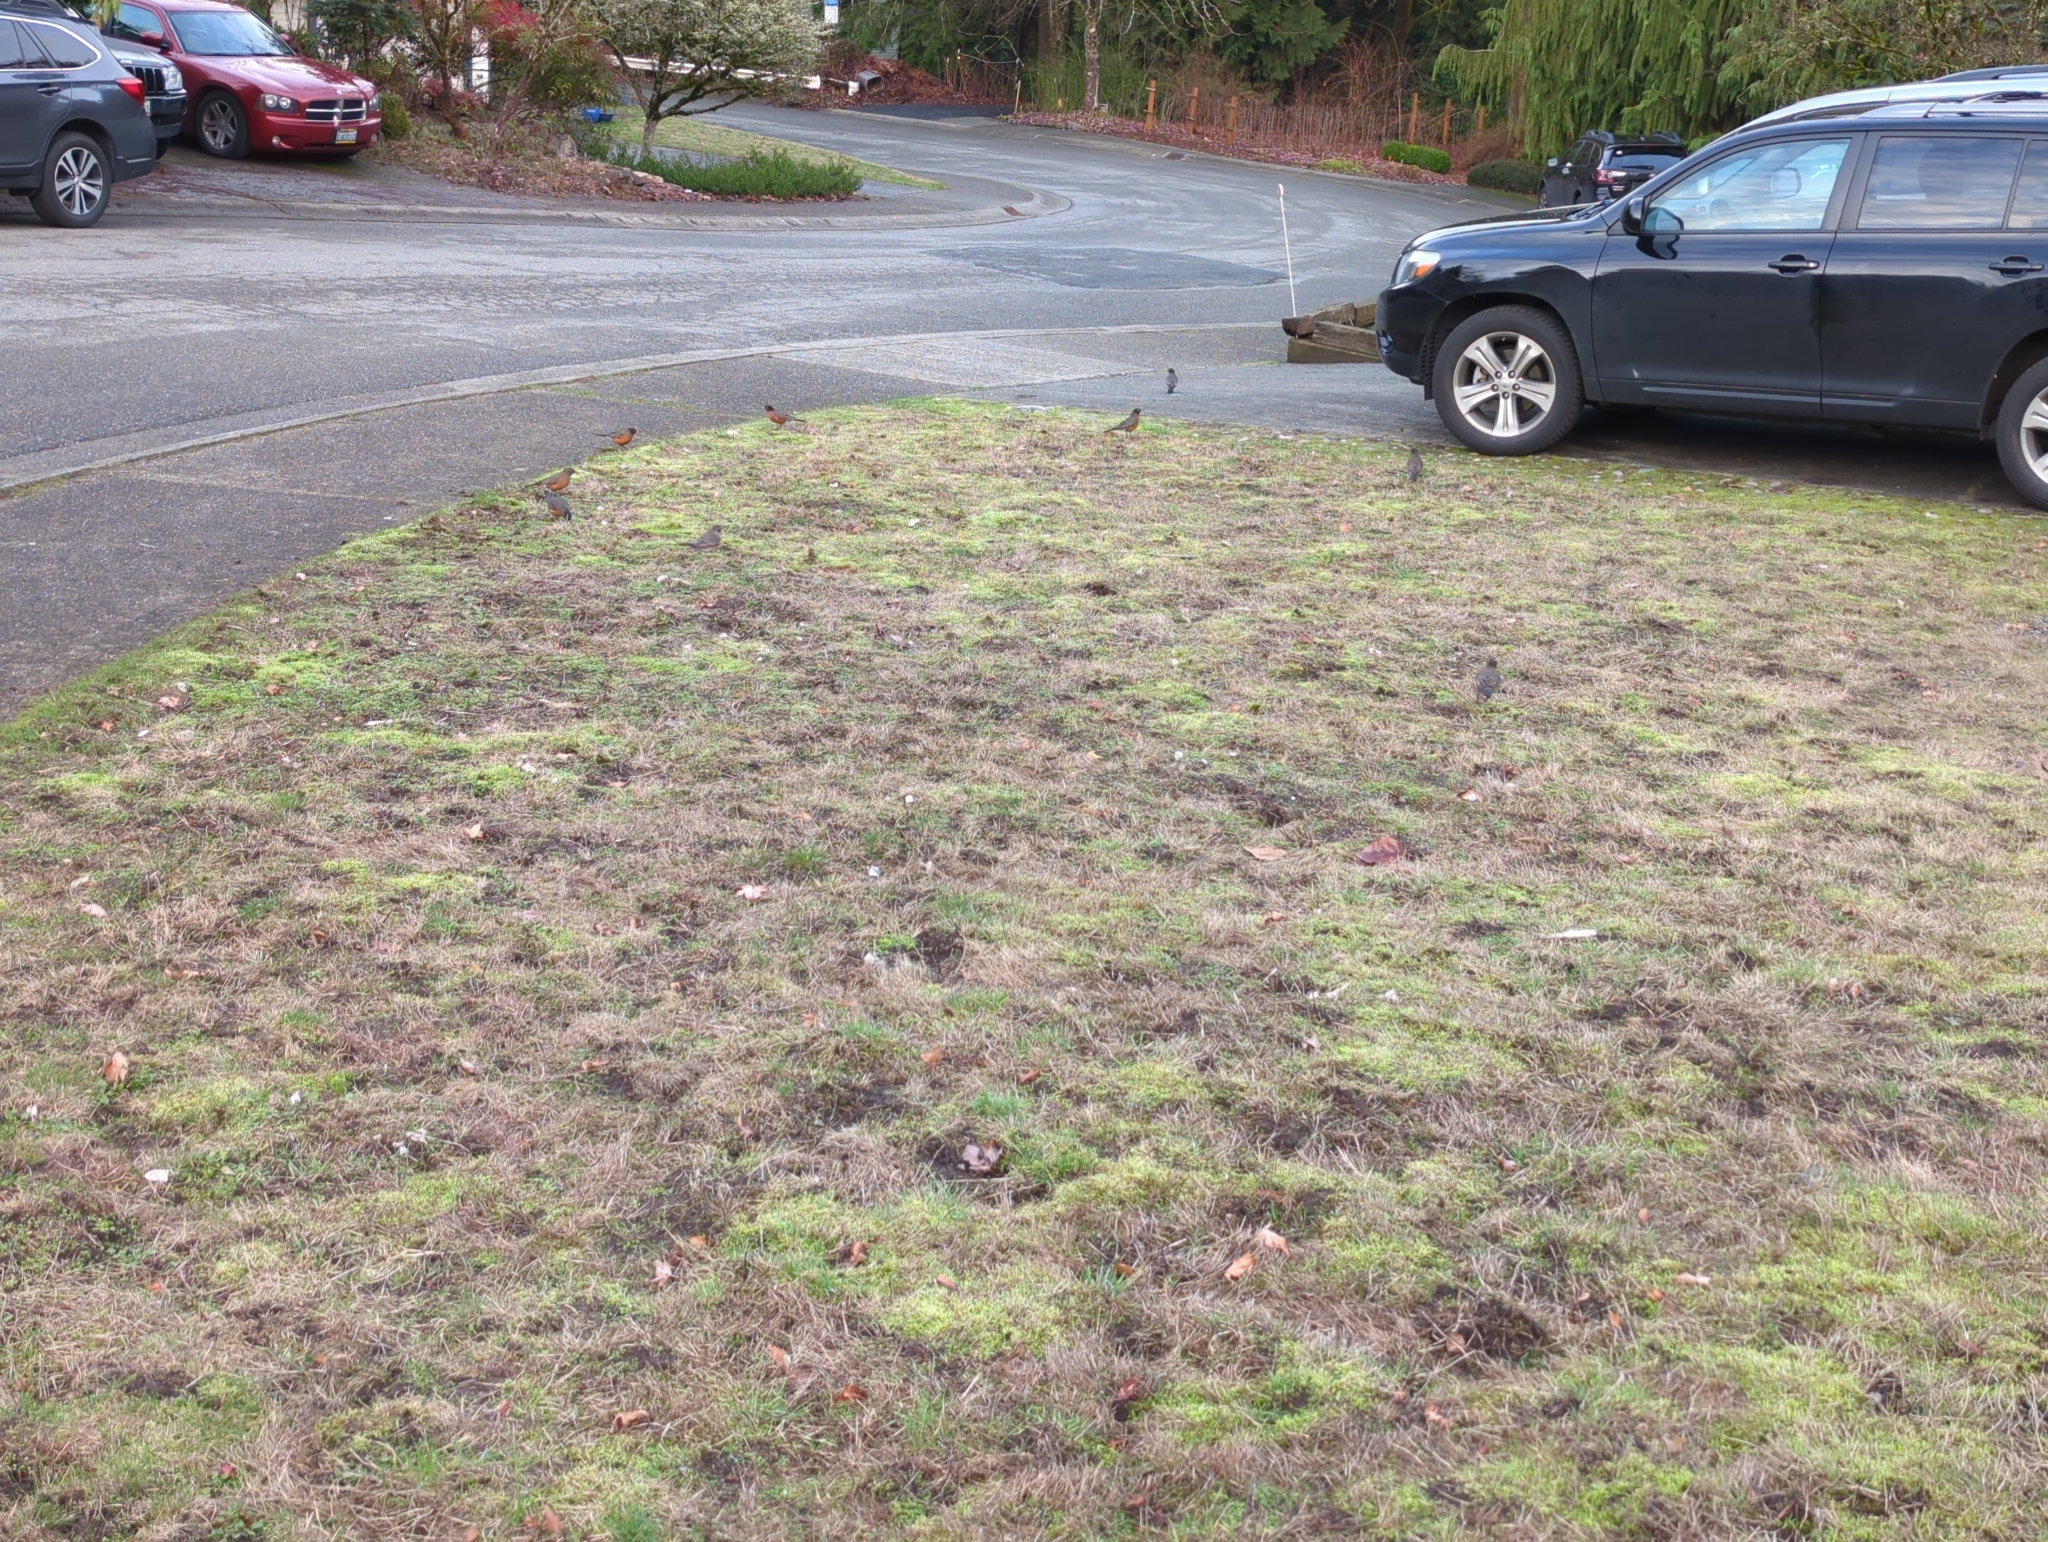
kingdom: Animalia
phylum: Chordata
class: Aves
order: Passeriformes
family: Turdidae
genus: Turdus
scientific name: Turdus migratorius
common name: American robin
